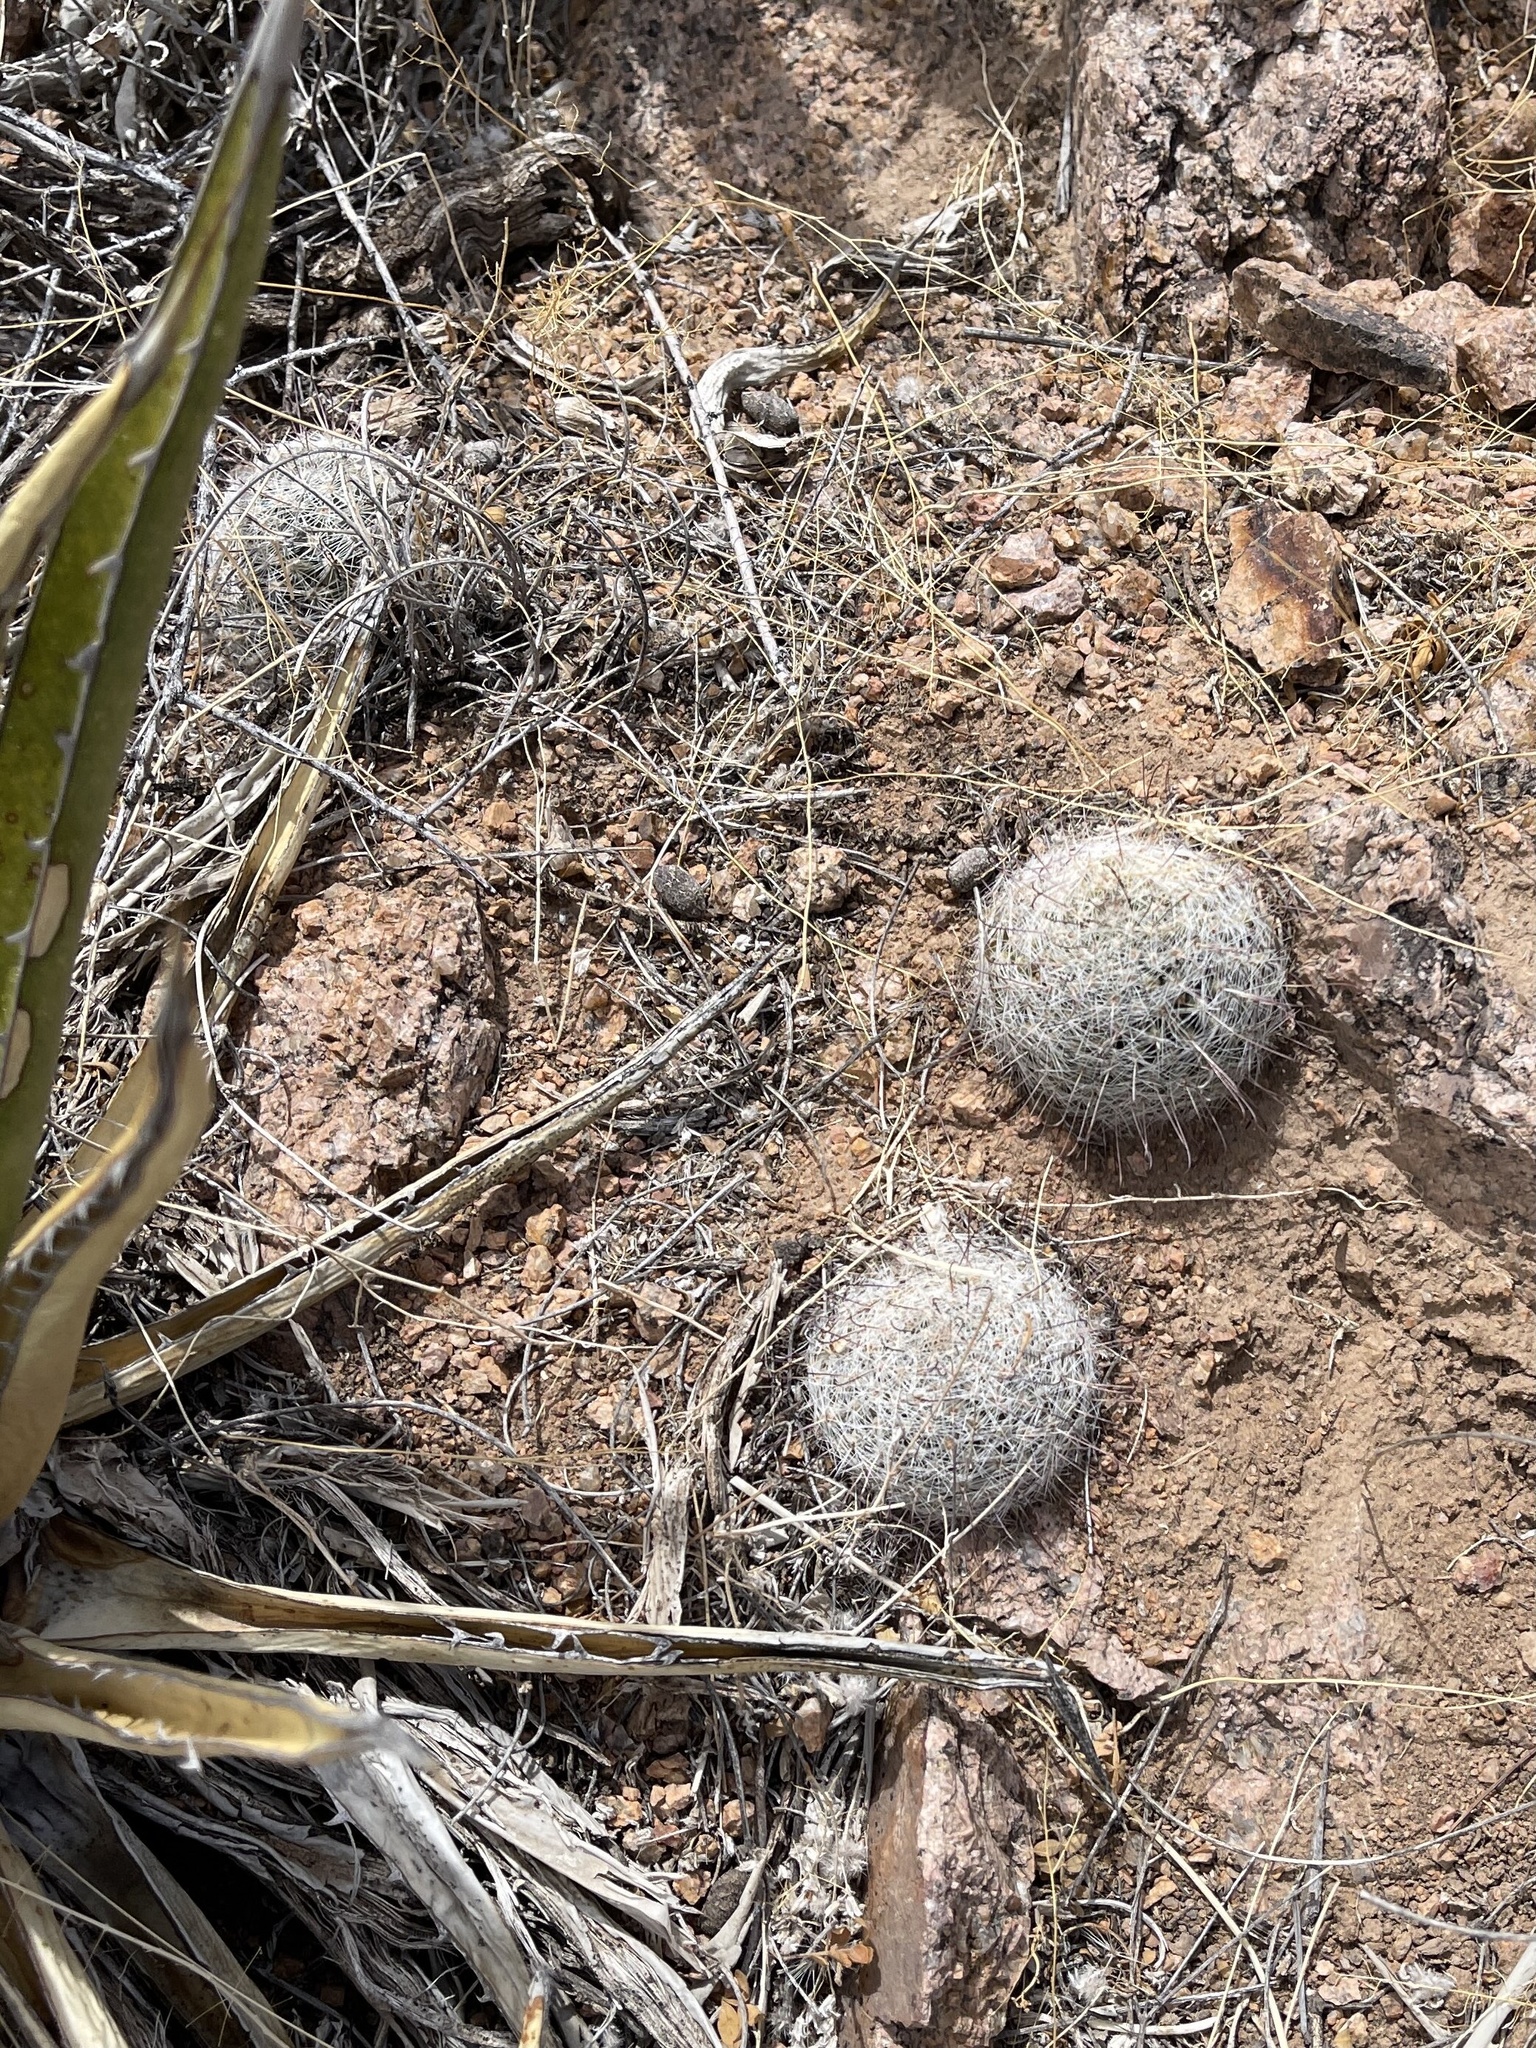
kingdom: Plantae
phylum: Tracheophyta
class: Magnoliopsida
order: Caryophyllales
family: Cactaceae
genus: Cochemiea
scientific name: Cochemiea grahamii
